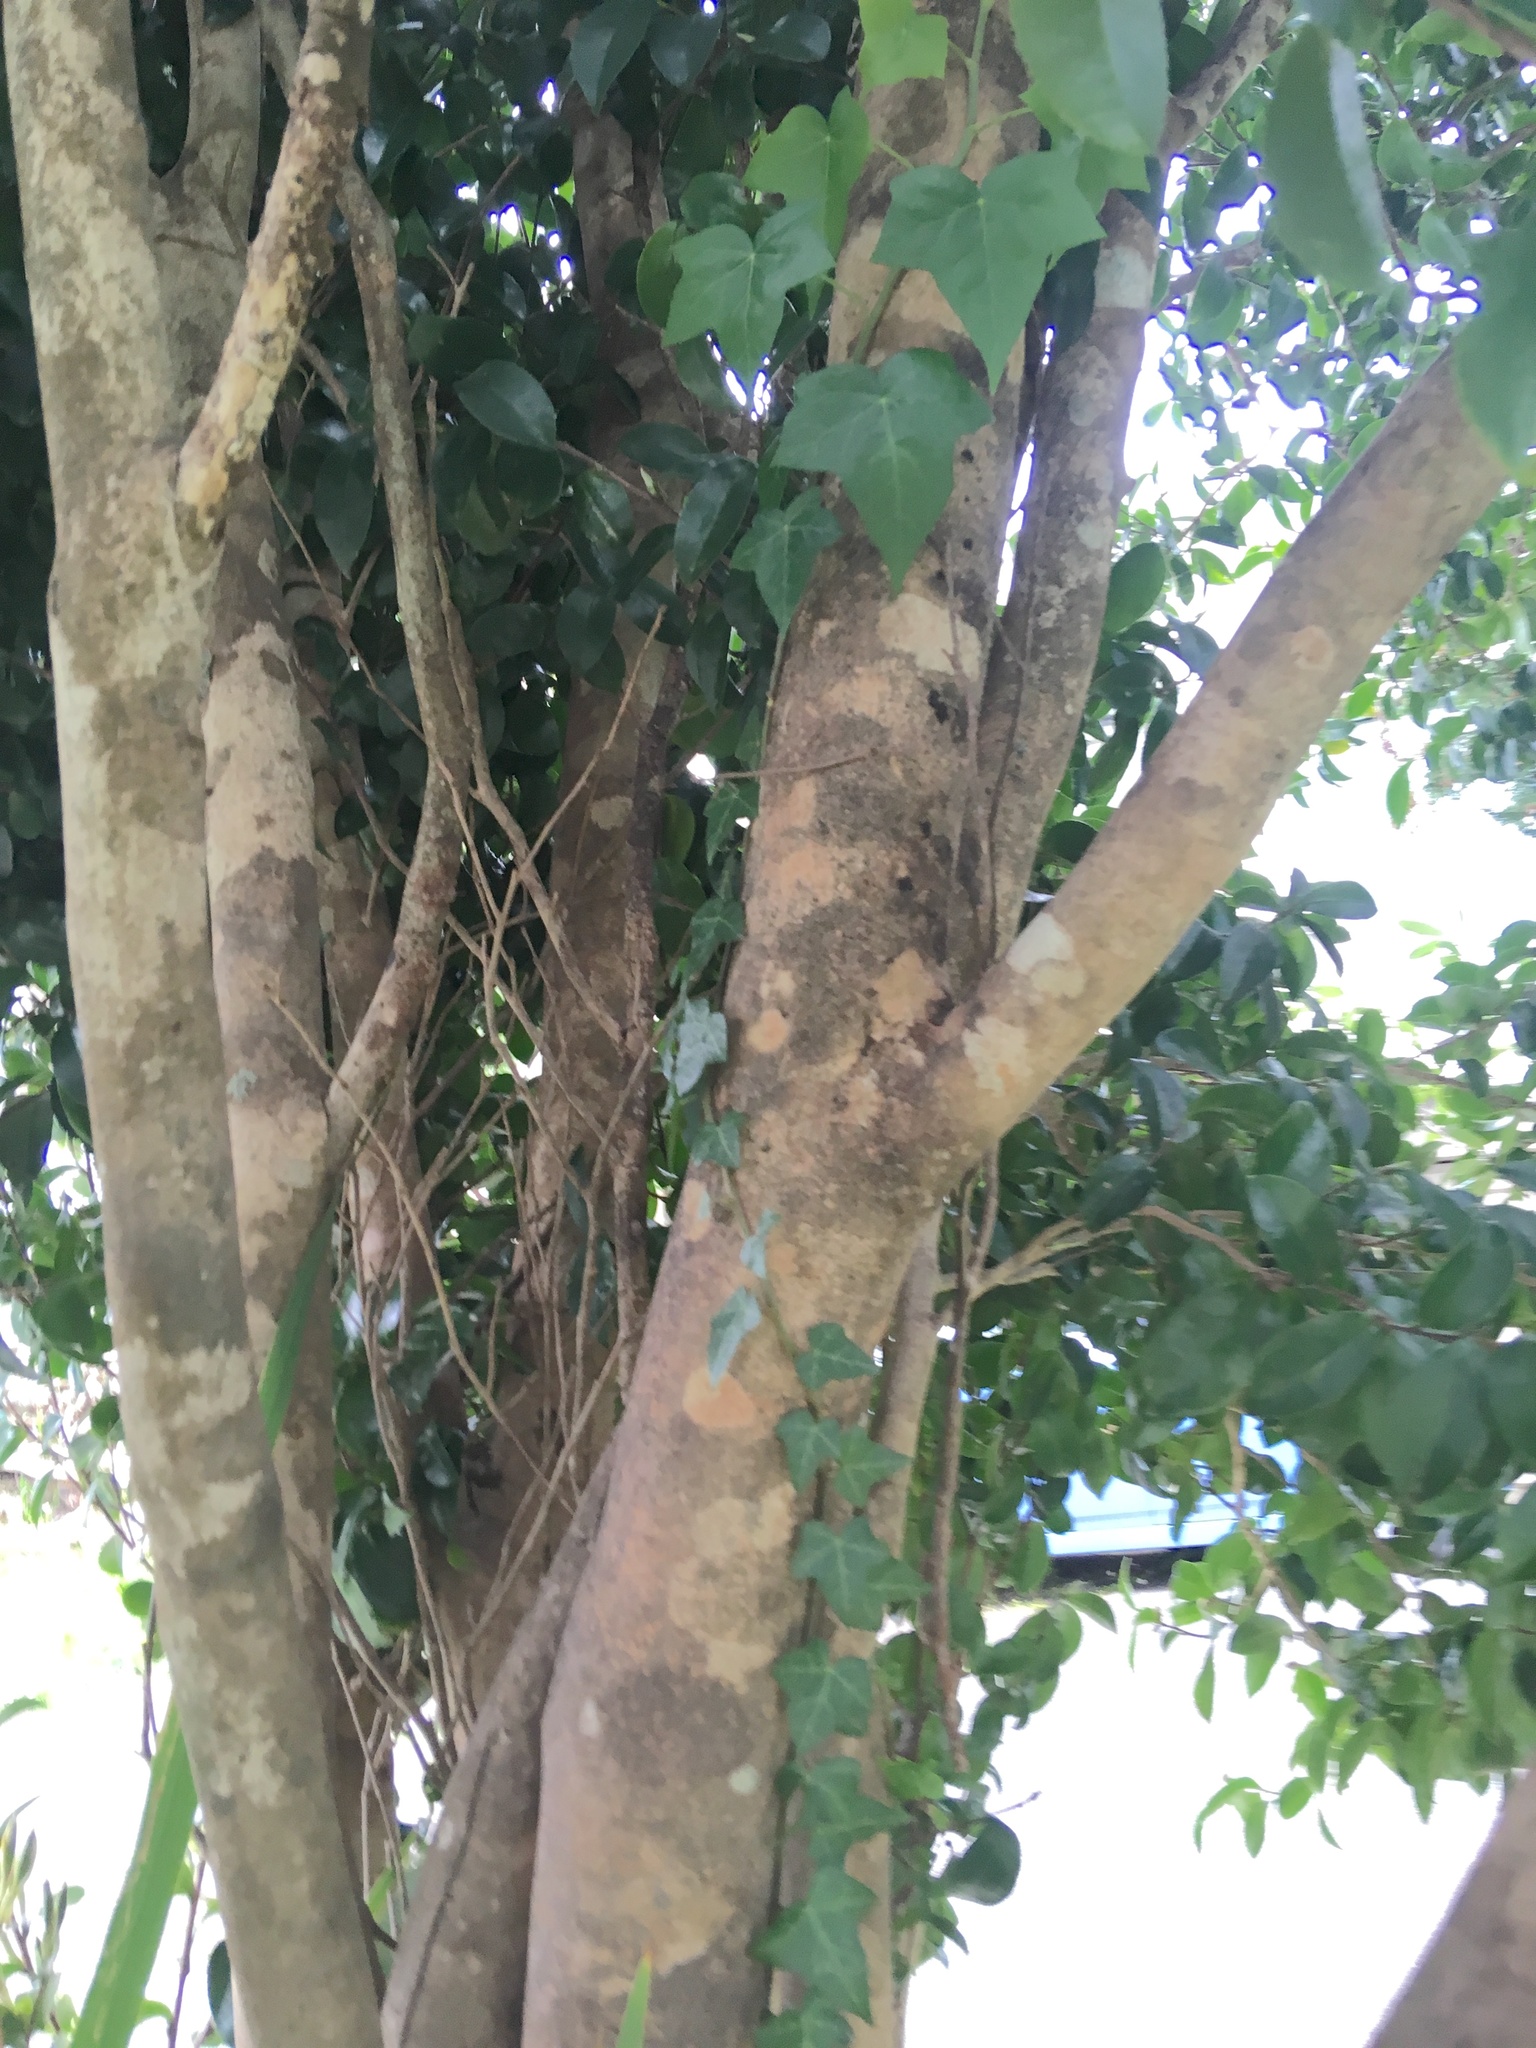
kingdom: Plantae
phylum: Tracheophyta
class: Magnoliopsida
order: Apiales
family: Araliaceae
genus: Hedera
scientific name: Hedera helix
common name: Ivy
